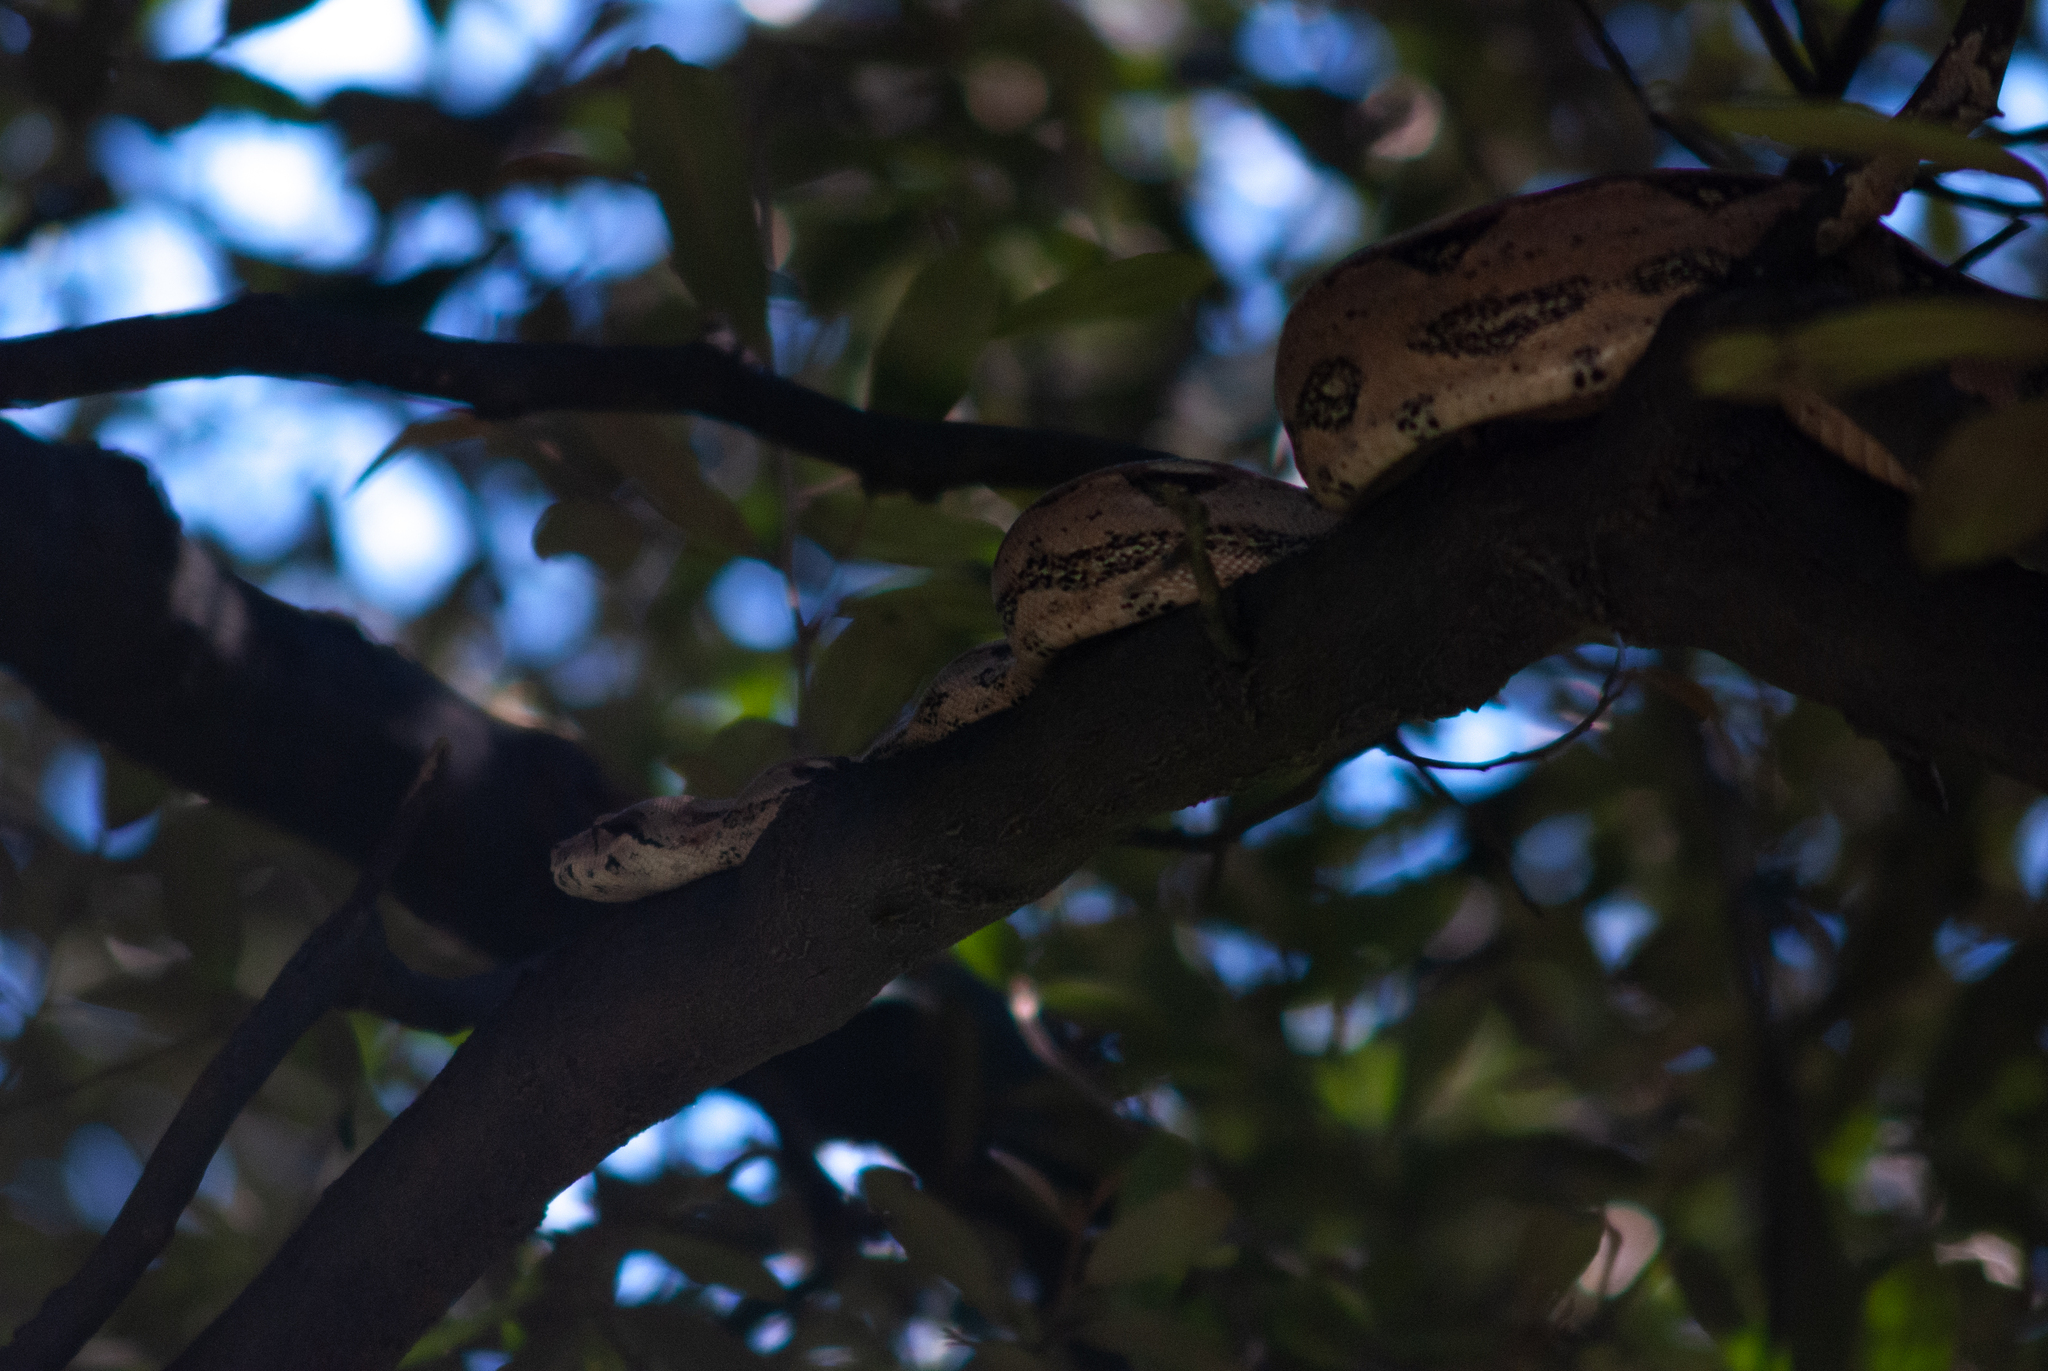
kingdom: Animalia
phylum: Chordata
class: Squamata
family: Boidae
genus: Boa
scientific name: Boa constrictor
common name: Boa constrictor
